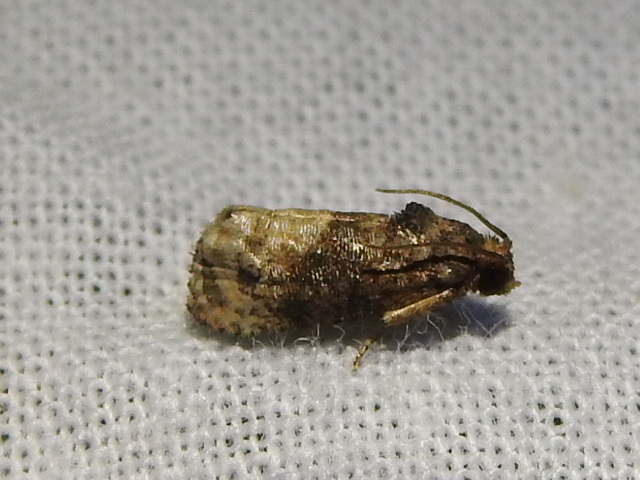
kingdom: Animalia
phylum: Arthropoda
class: Insecta
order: Lepidoptera
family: Tortricidae
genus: Ecdytolopha
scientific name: Ecdytolopha mana
